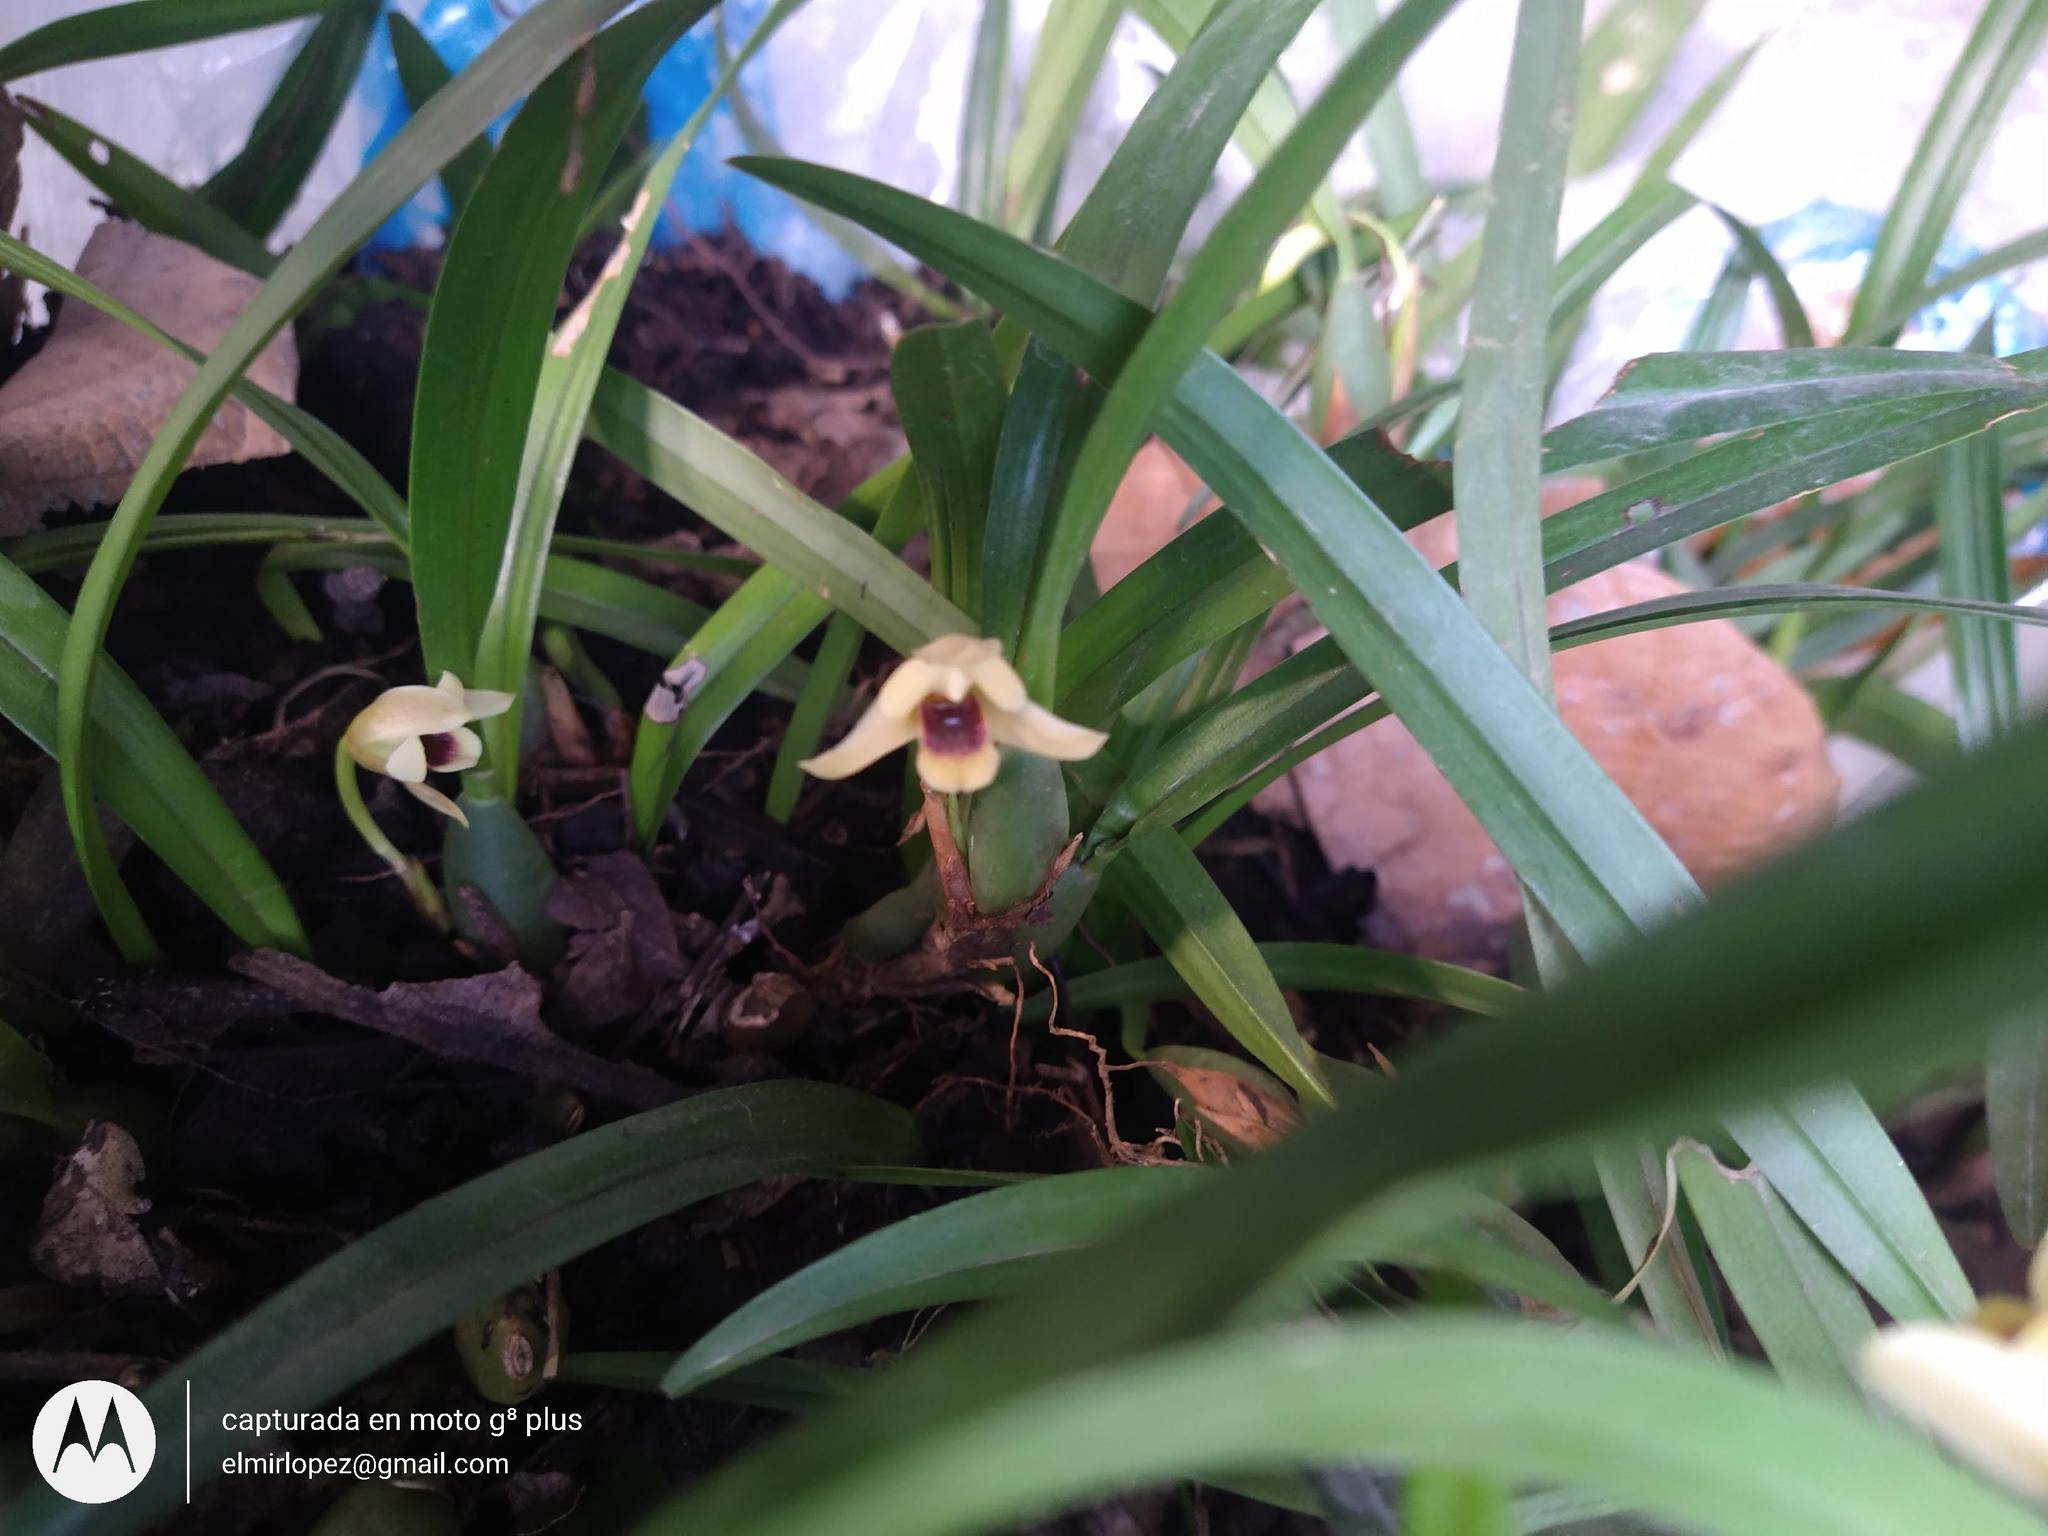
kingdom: Plantae
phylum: Tracheophyta
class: Liliopsida
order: Asparagales
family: Orchidaceae
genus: Maxillaria
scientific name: Maxillaria variabilis
